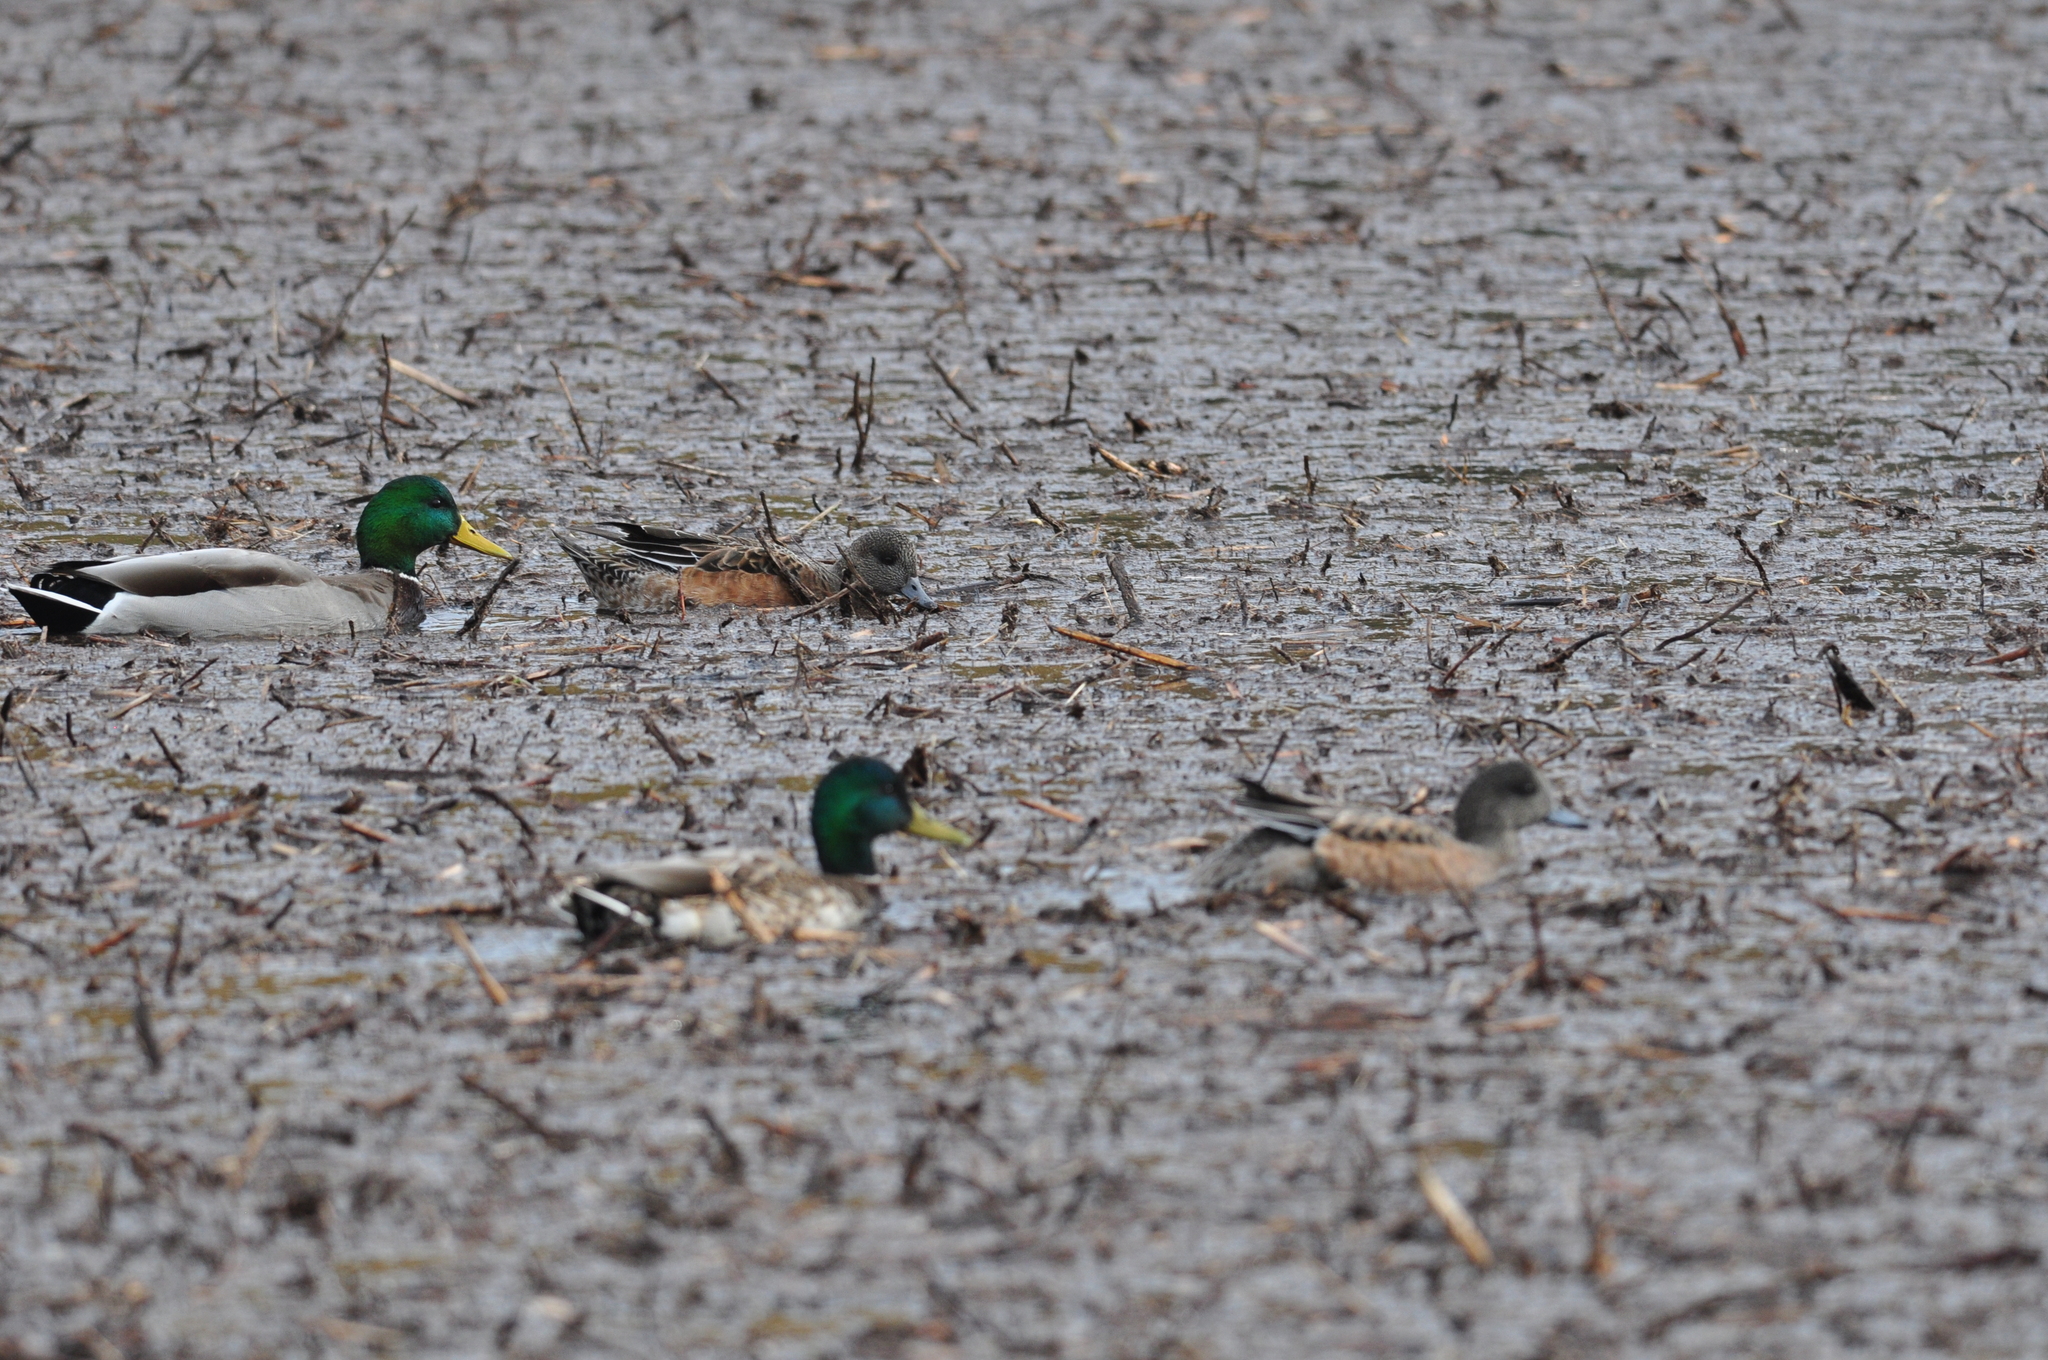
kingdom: Animalia
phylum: Chordata
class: Aves
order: Anseriformes
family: Anatidae
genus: Anas
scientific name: Anas platyrhynchos
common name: Mallard
